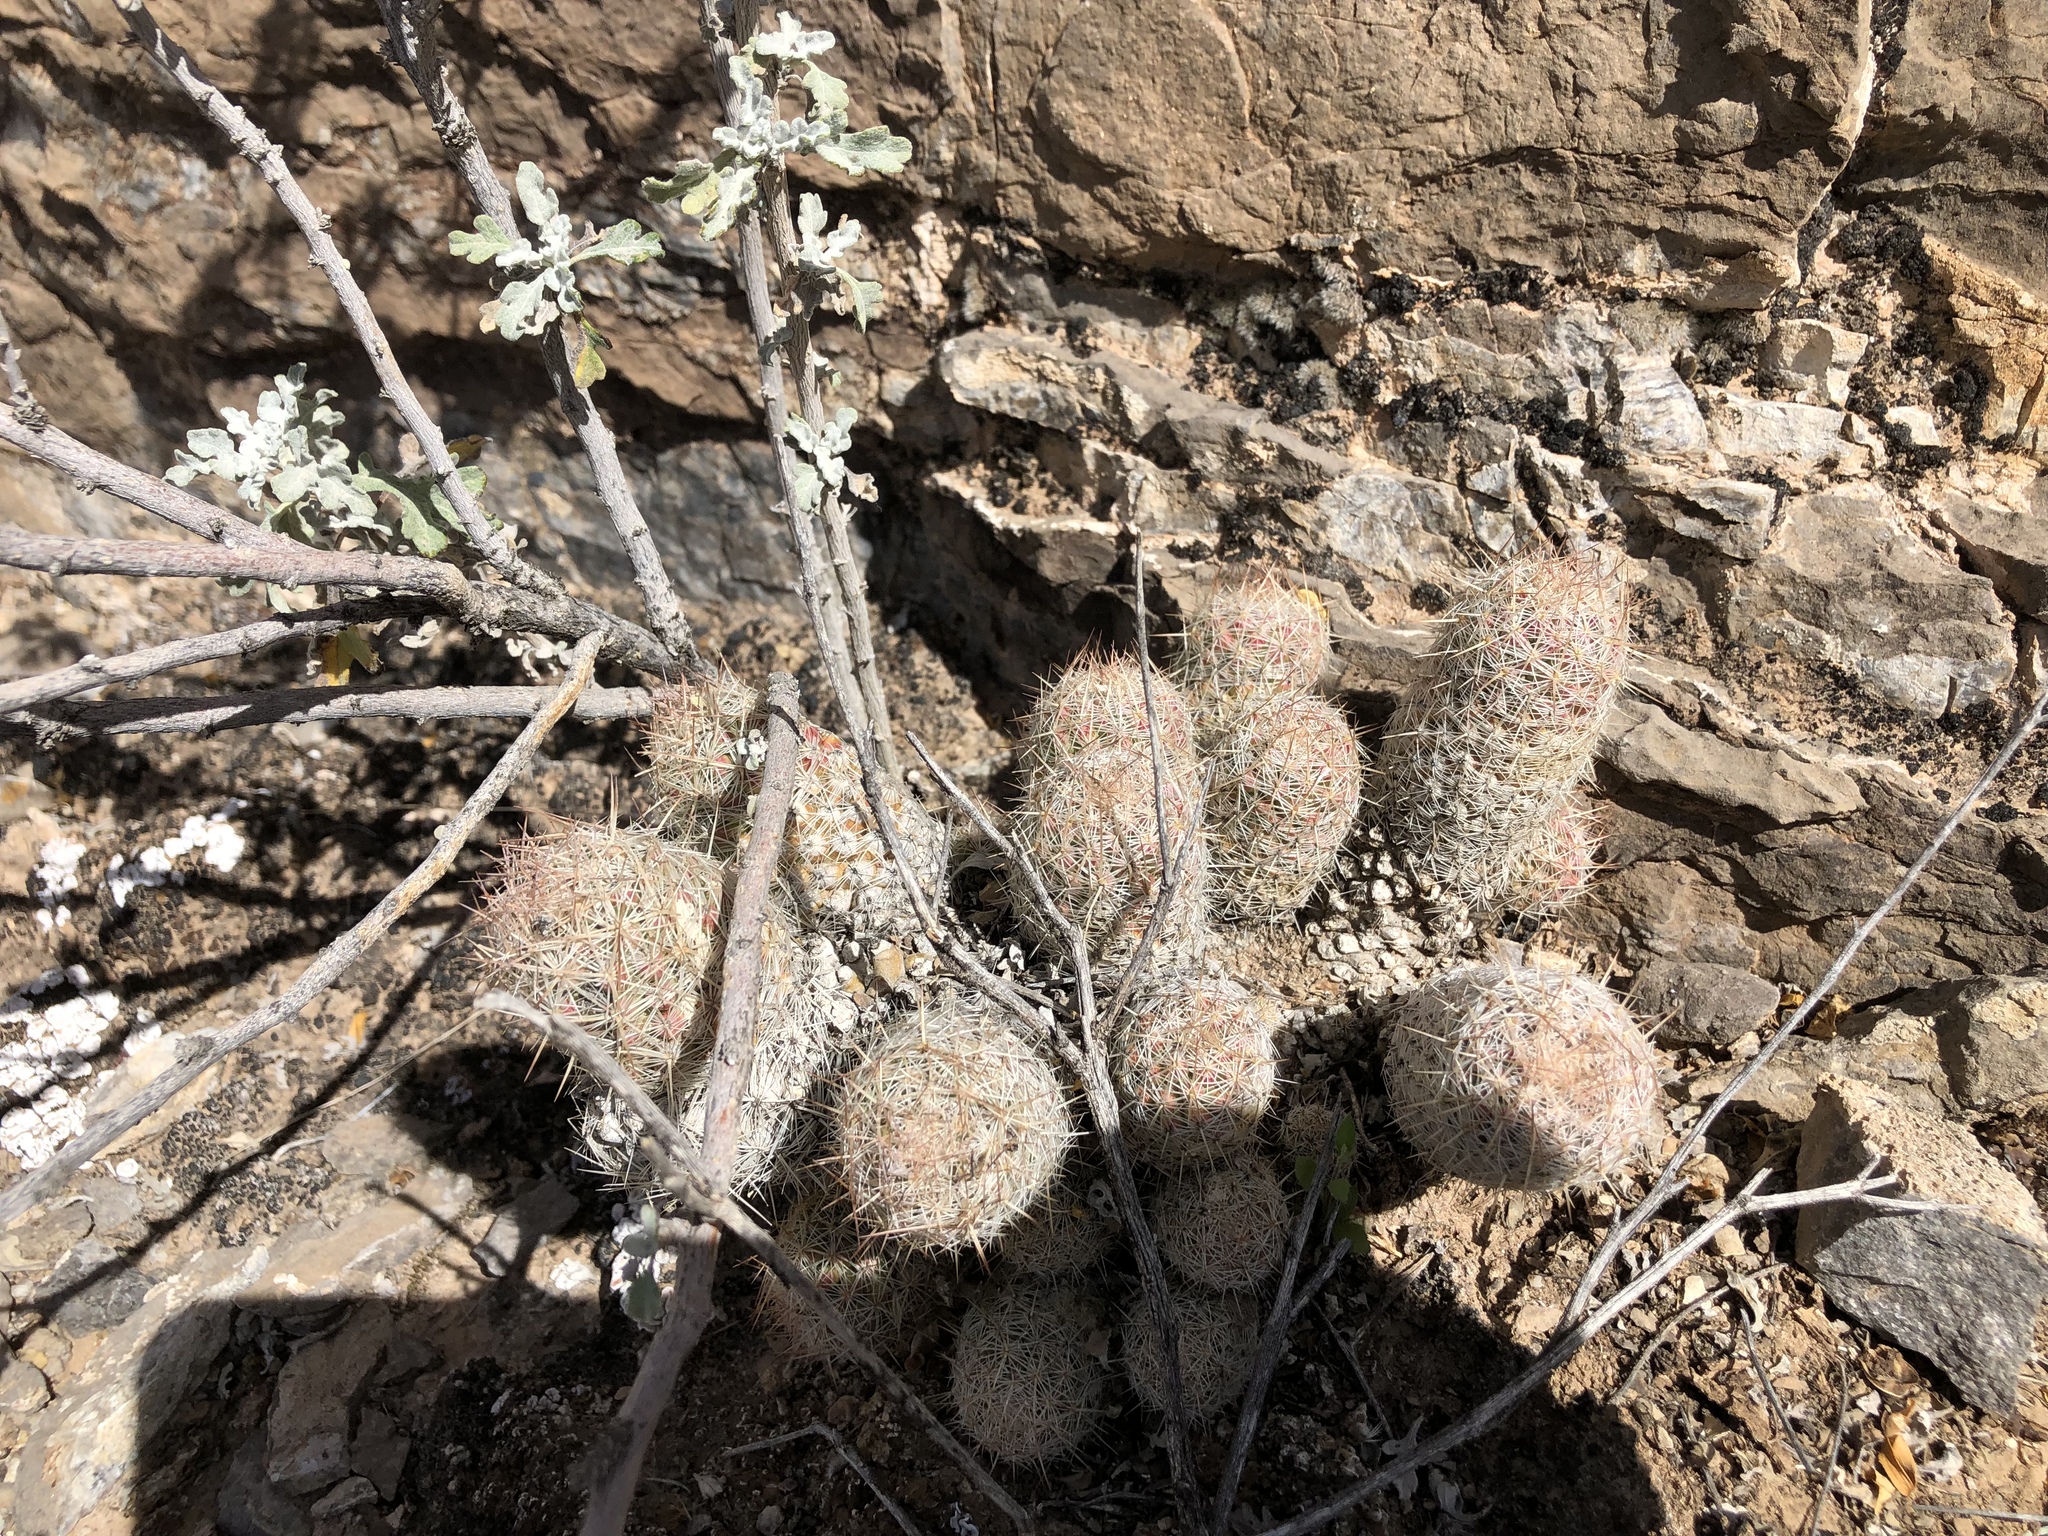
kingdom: Plantae
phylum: Tracheophyta
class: Magnoliopsida
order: Caryophyllales
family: Cactaceae
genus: Pelecyphora
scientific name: Pelecyphora tuberculosa
